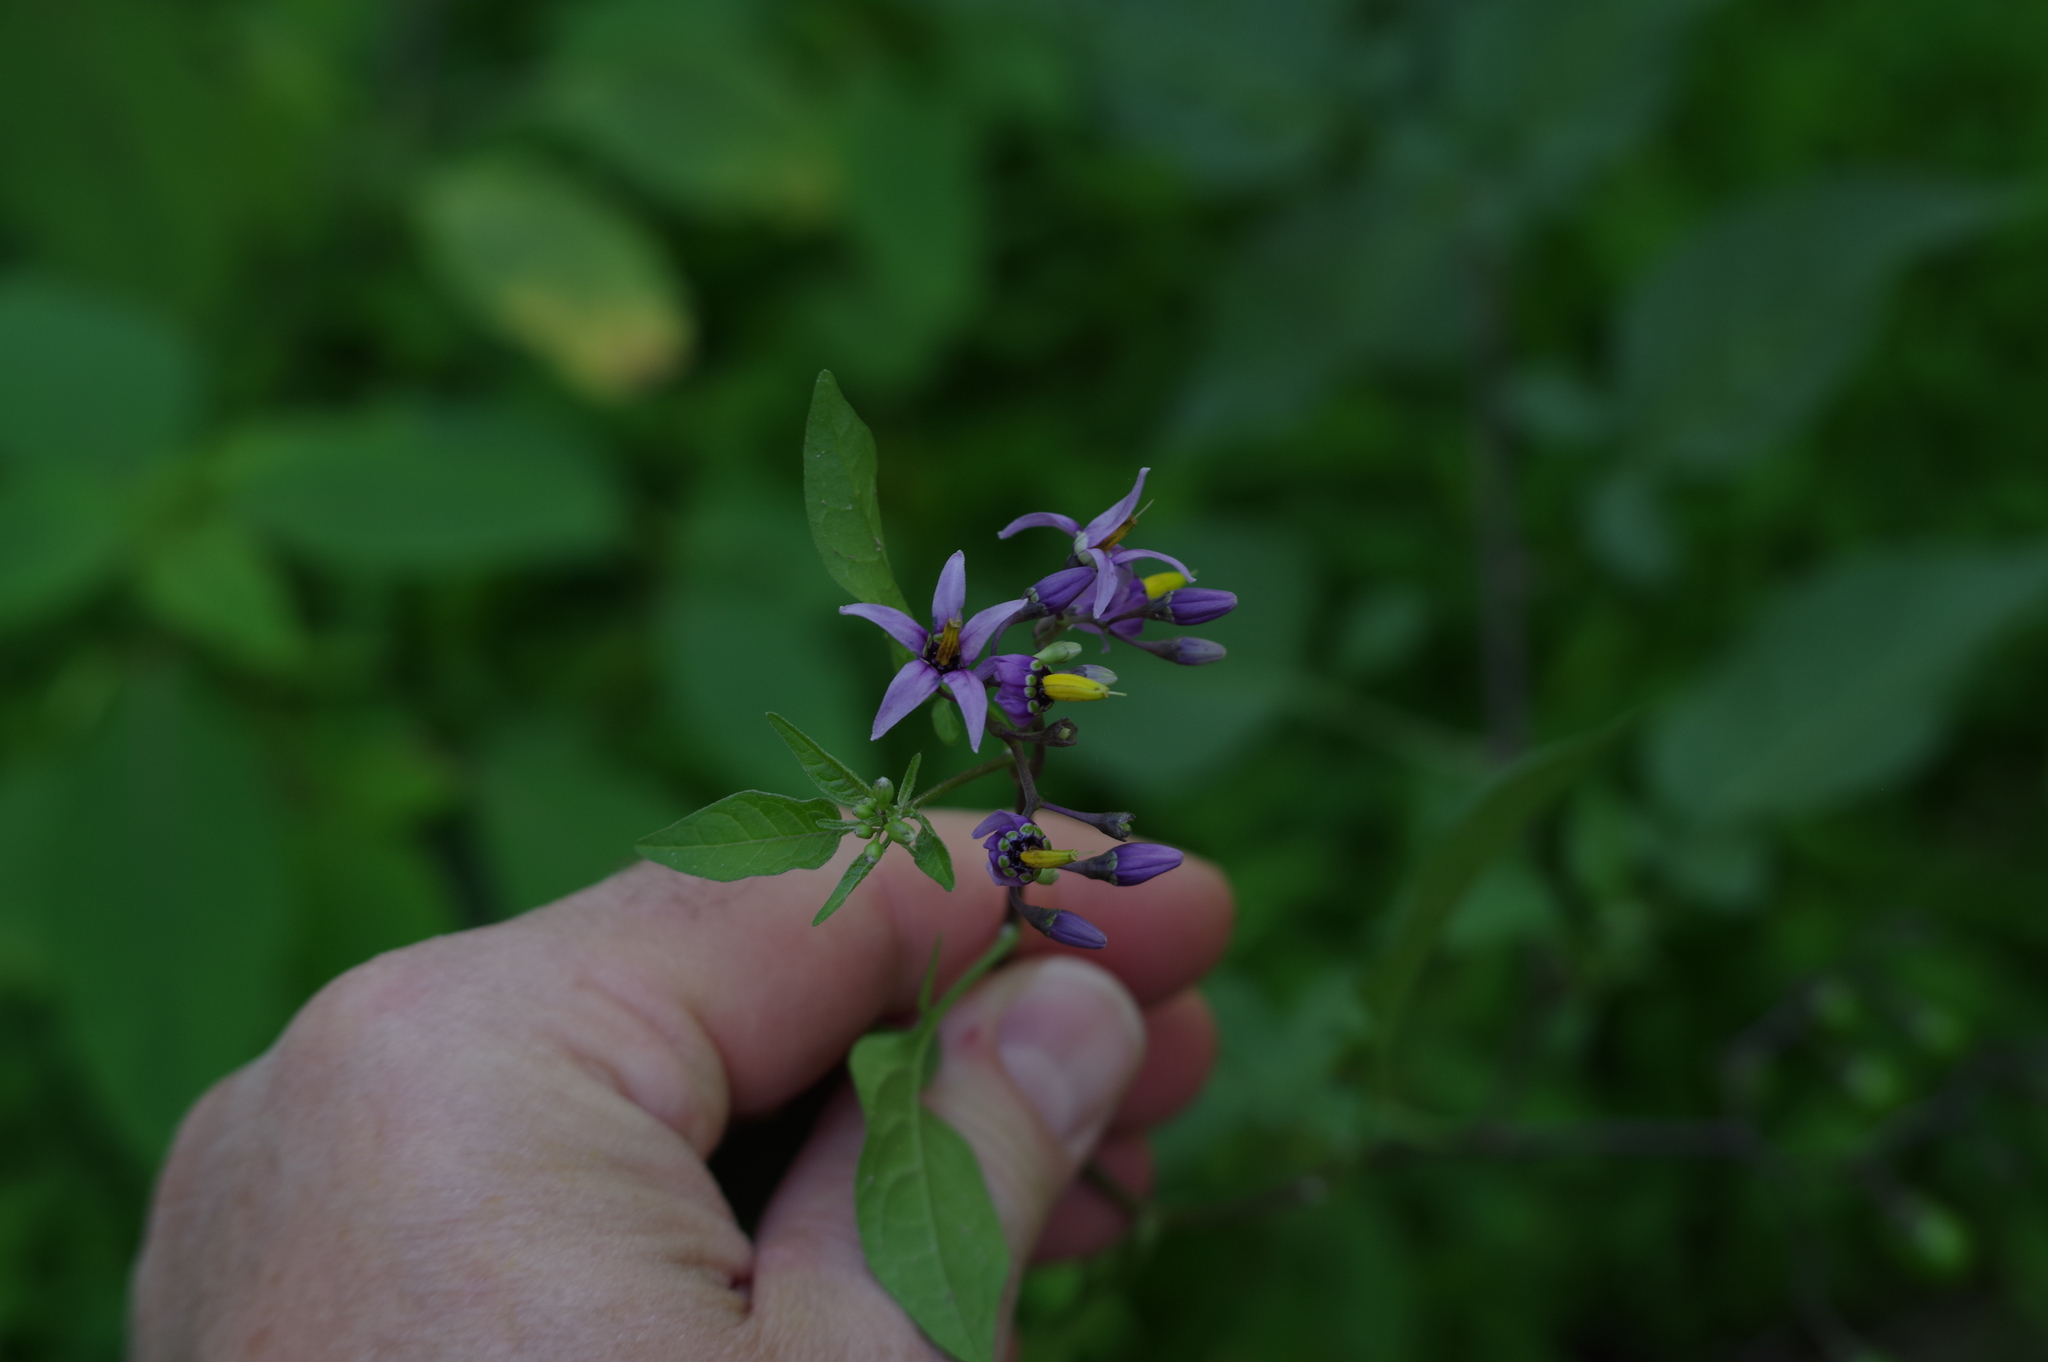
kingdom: Plantae
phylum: Tracheophyta
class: Magnoliopsida
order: Solanales
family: Solanaceae
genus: Solanum
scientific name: Solanum dulcamara
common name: Climbing nightshade
